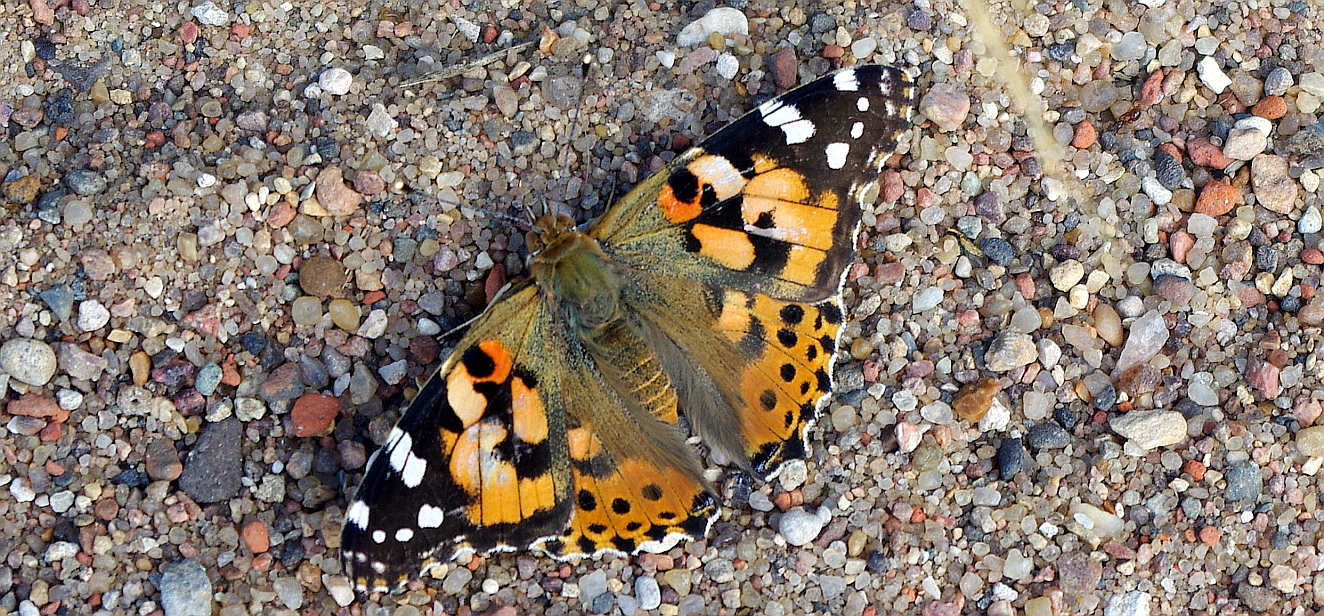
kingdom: Animalia
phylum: Arthropoda
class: Insecta
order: Lepidoptera
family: Nymphalidae
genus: Vanessa
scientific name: Vanessa cardui
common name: Painted lady
